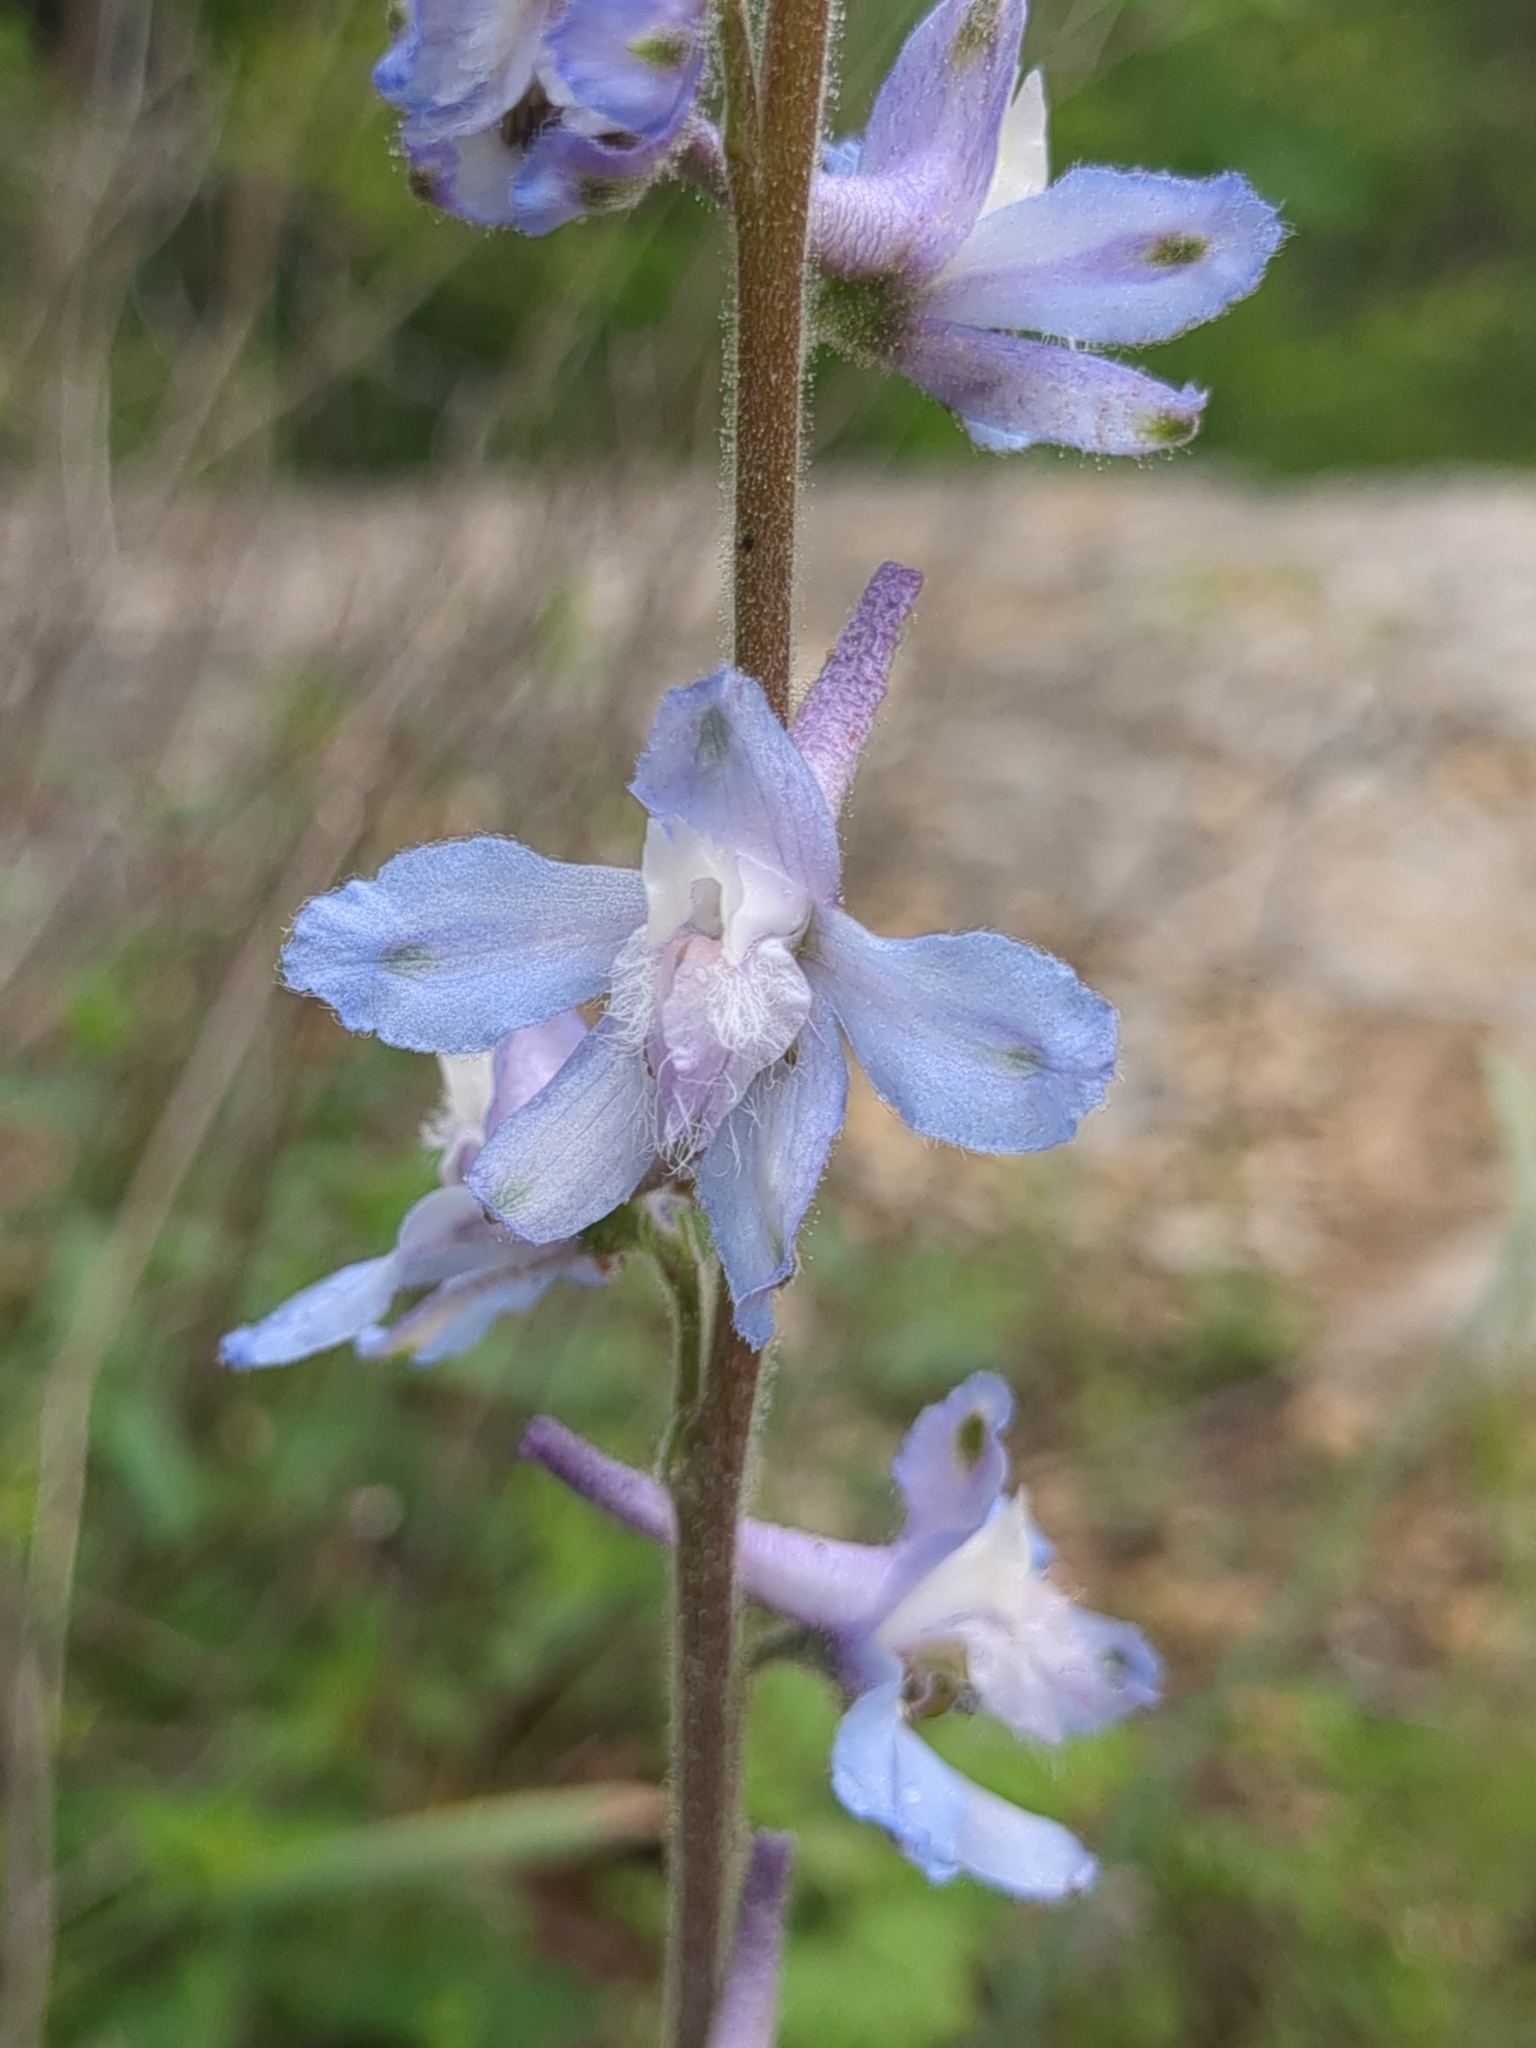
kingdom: Plantae
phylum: Tracheophyta
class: Magnoliopsida
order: Ranunculales
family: Ranunculaceae
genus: Delphinium
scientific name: Delphinium carolinianum
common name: Carolina larkspur
